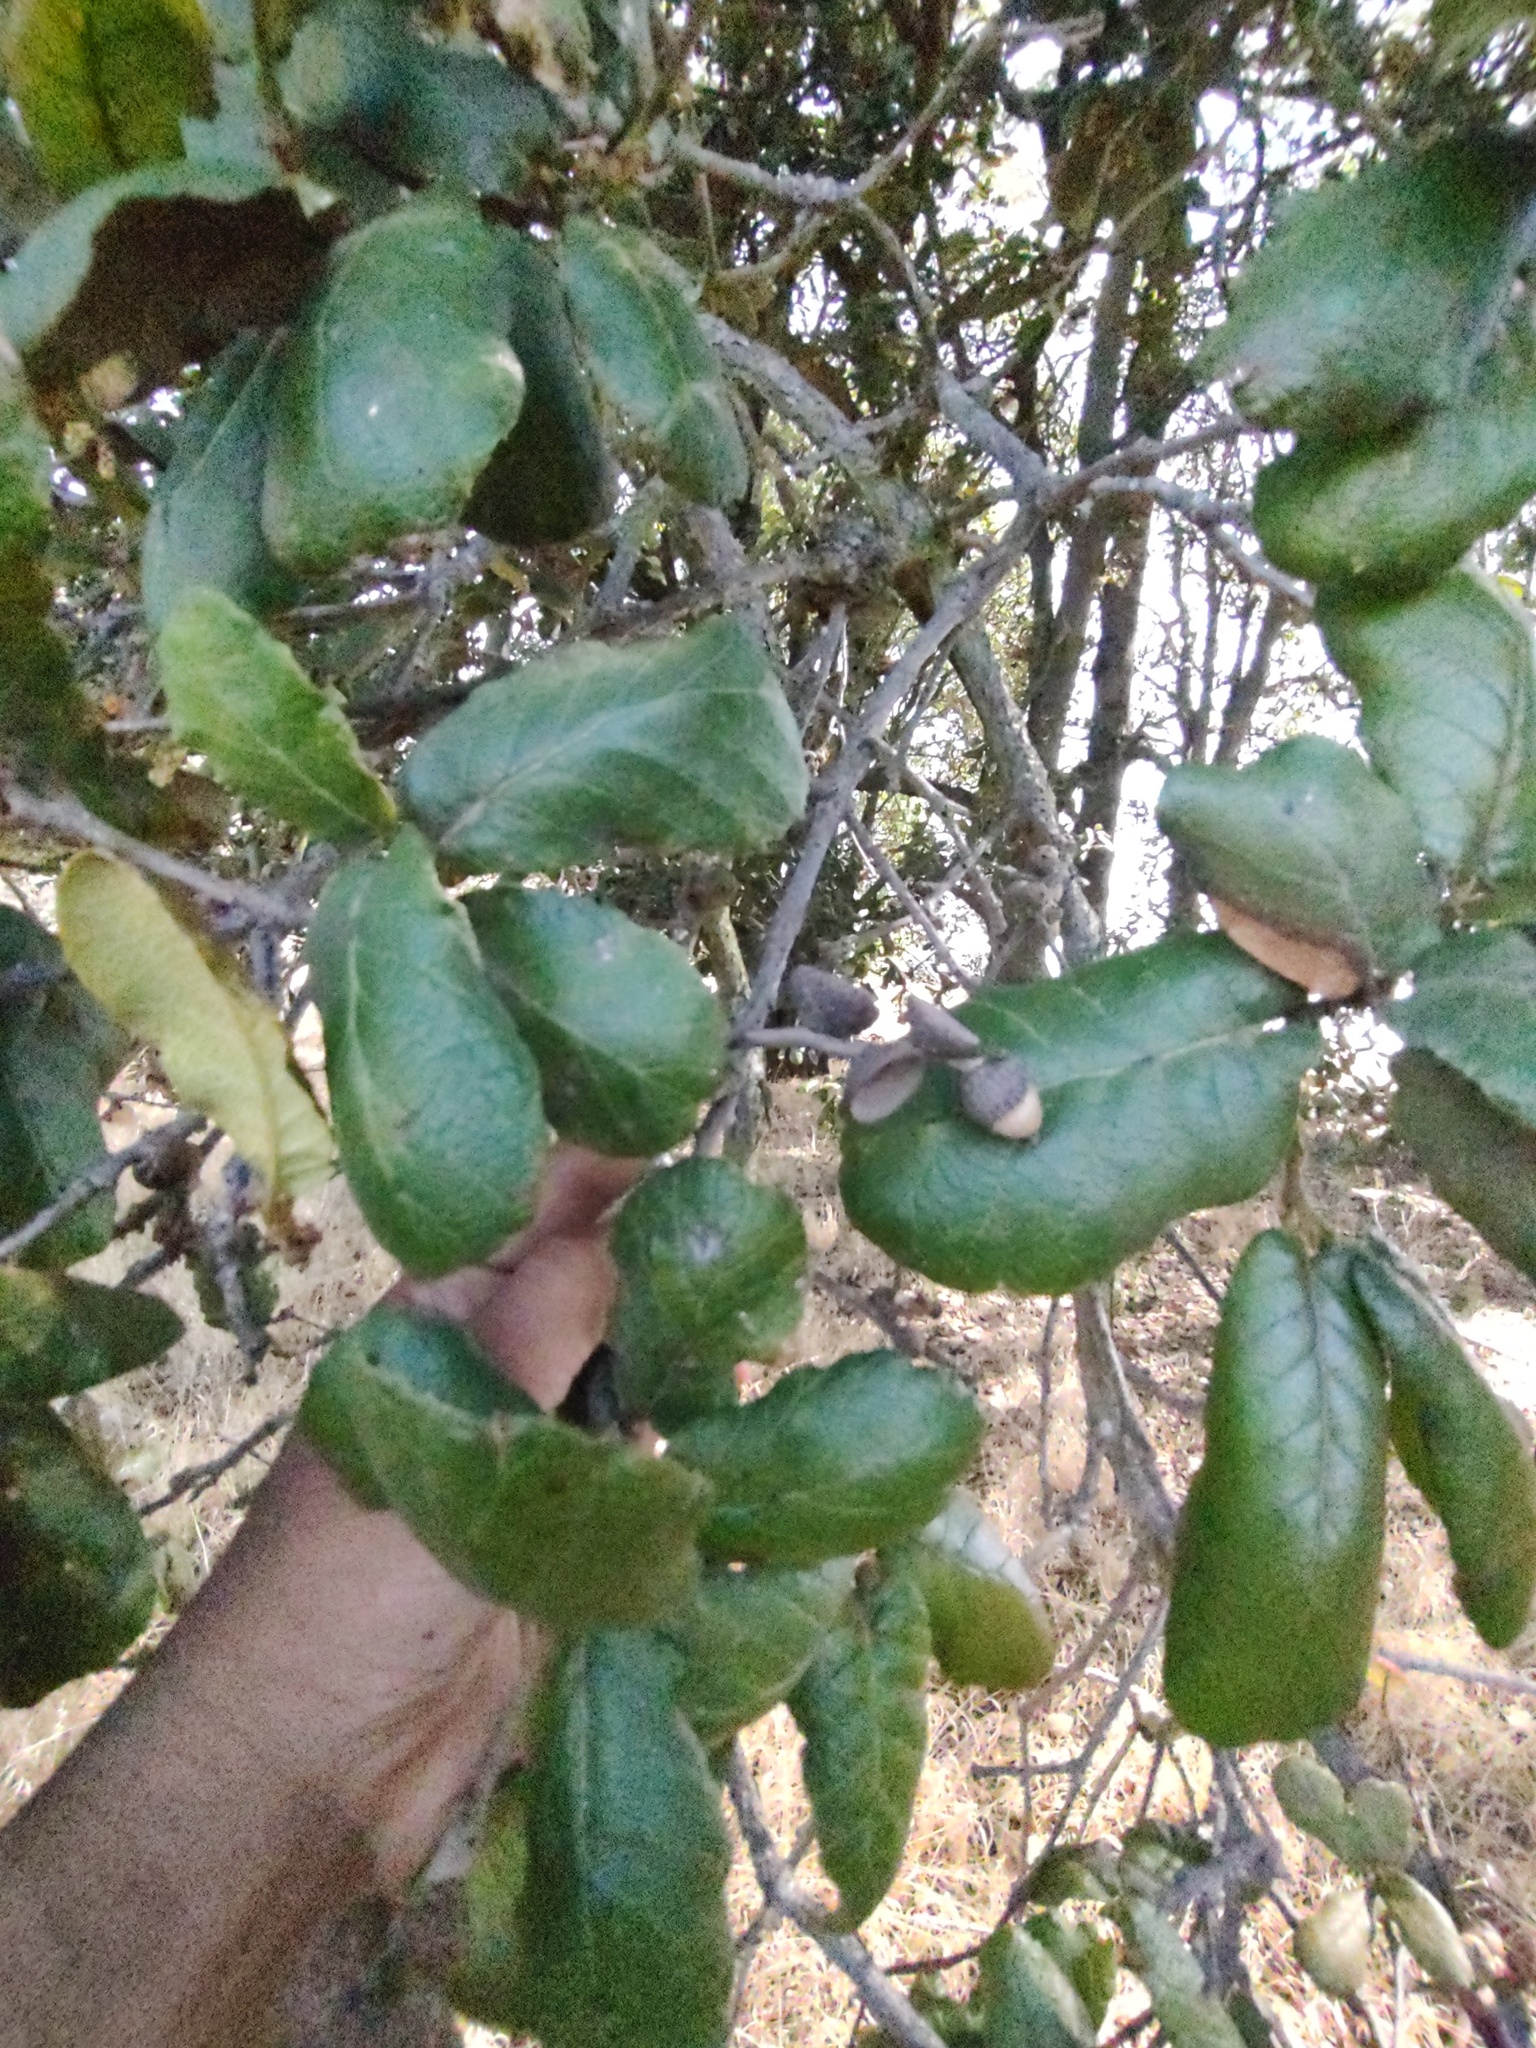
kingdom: Plantae
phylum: Tracheophyta
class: Magnoliopsida
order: Fagales
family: Fagaceae
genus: Quercus
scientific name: Quercus rugosa
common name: Netleaf oak
